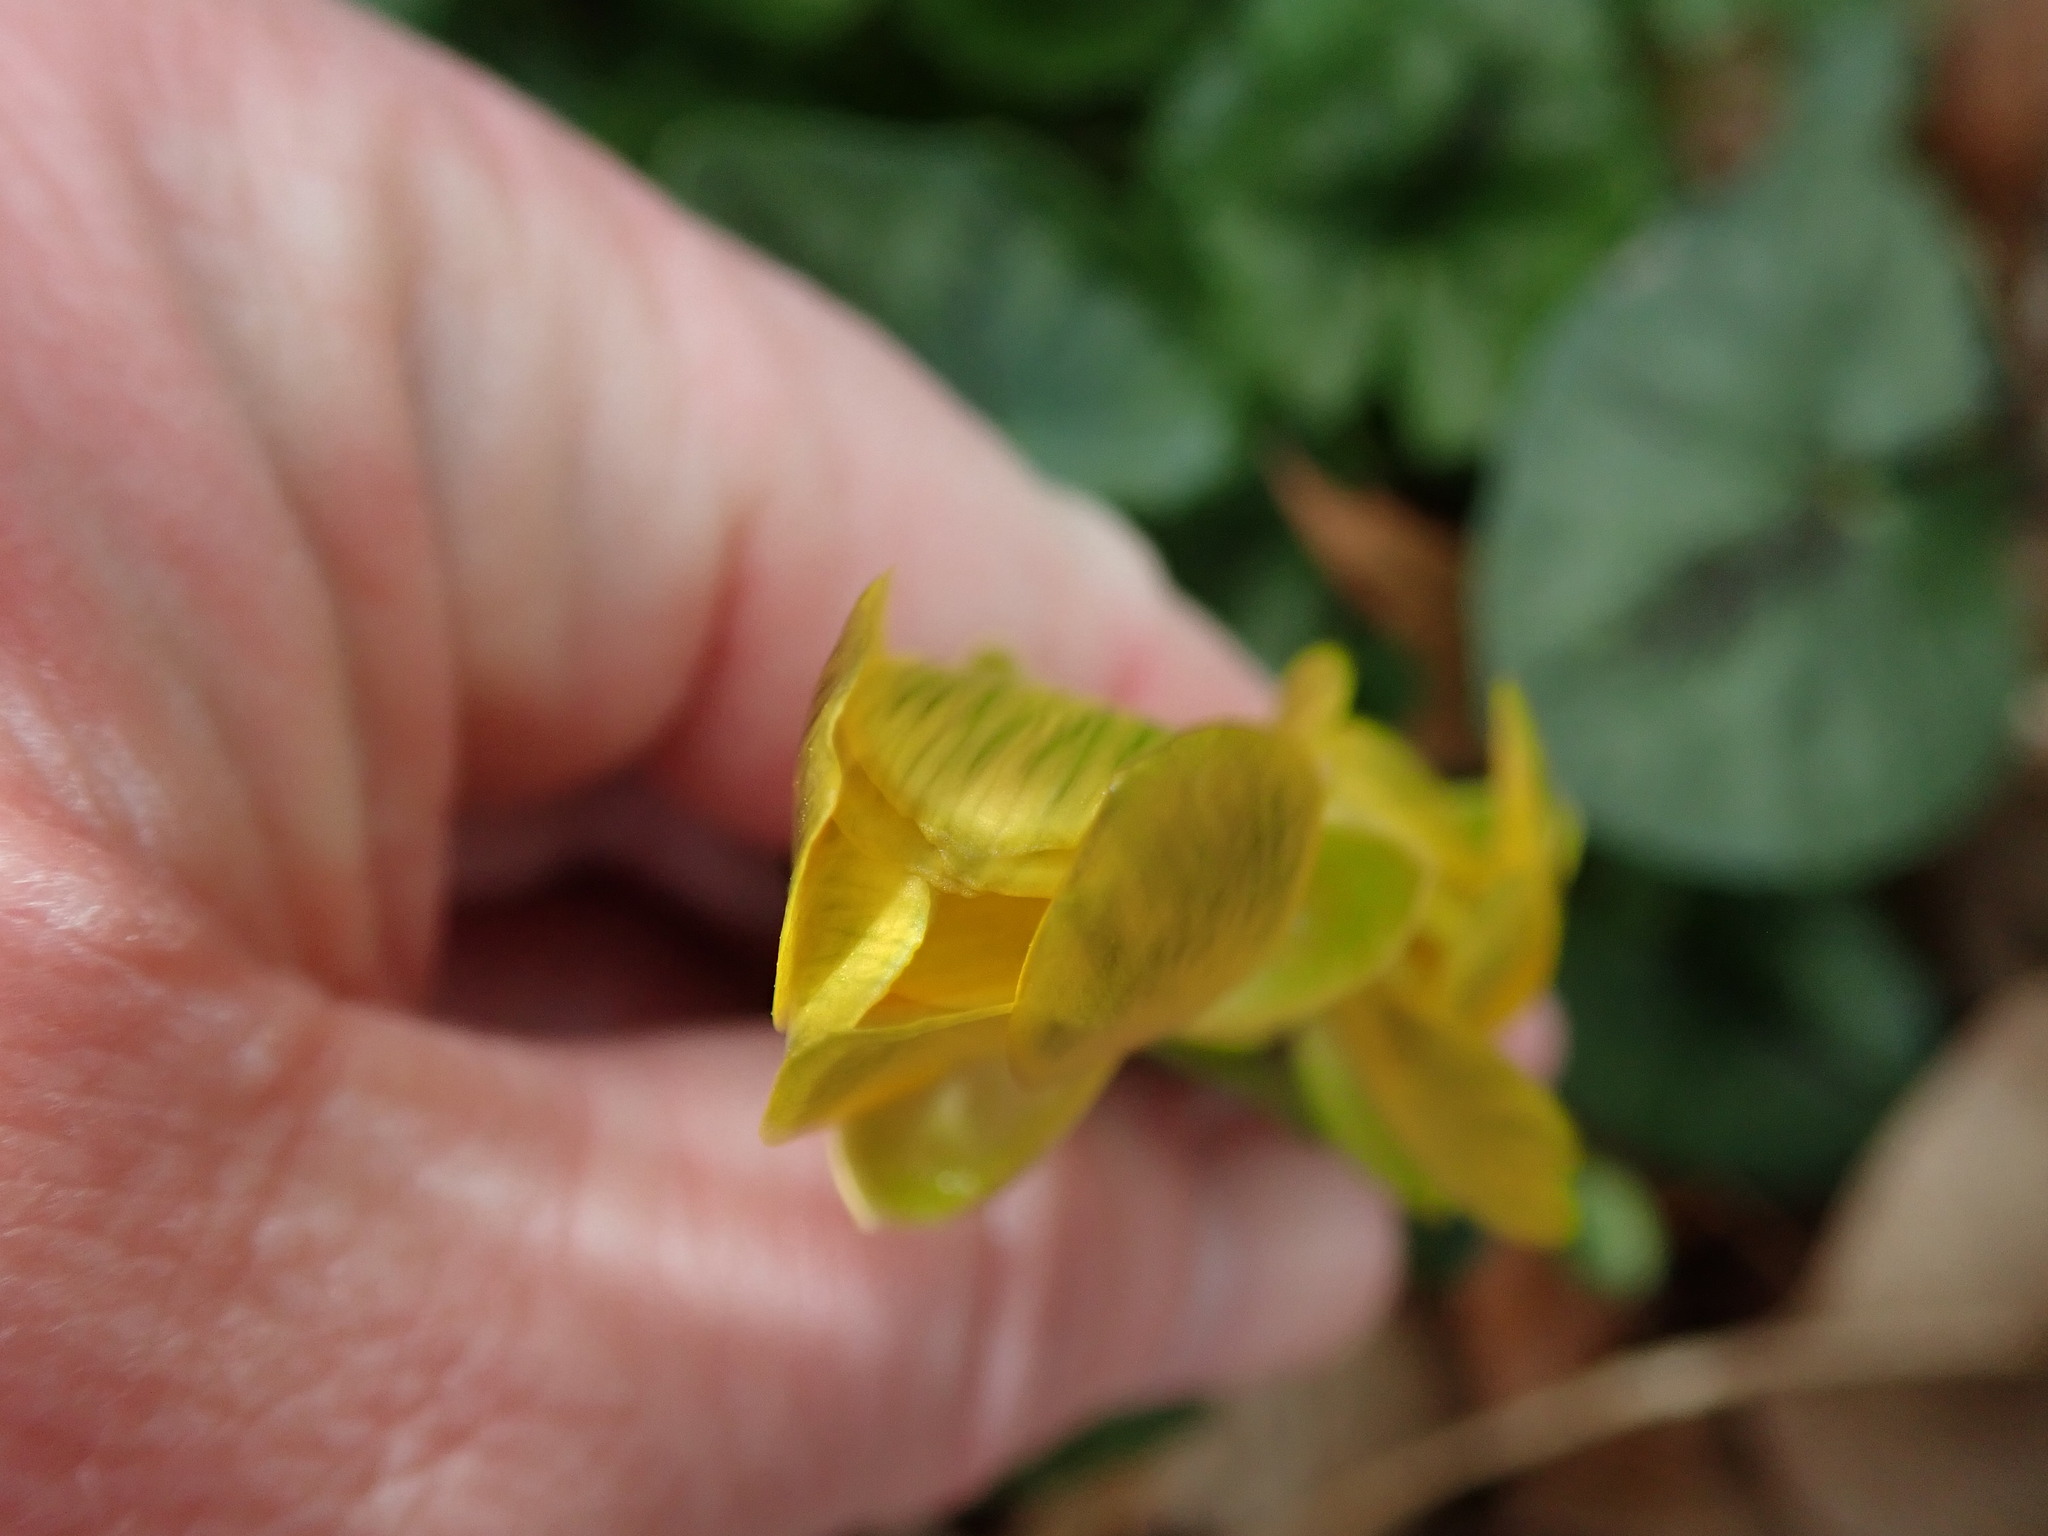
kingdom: Plantae
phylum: Tracheophyta
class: Magnoliopsida
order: Ranunculales
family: Ranunculaceae
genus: Ficaria
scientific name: Ficaria verna
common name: Lesser celandine
